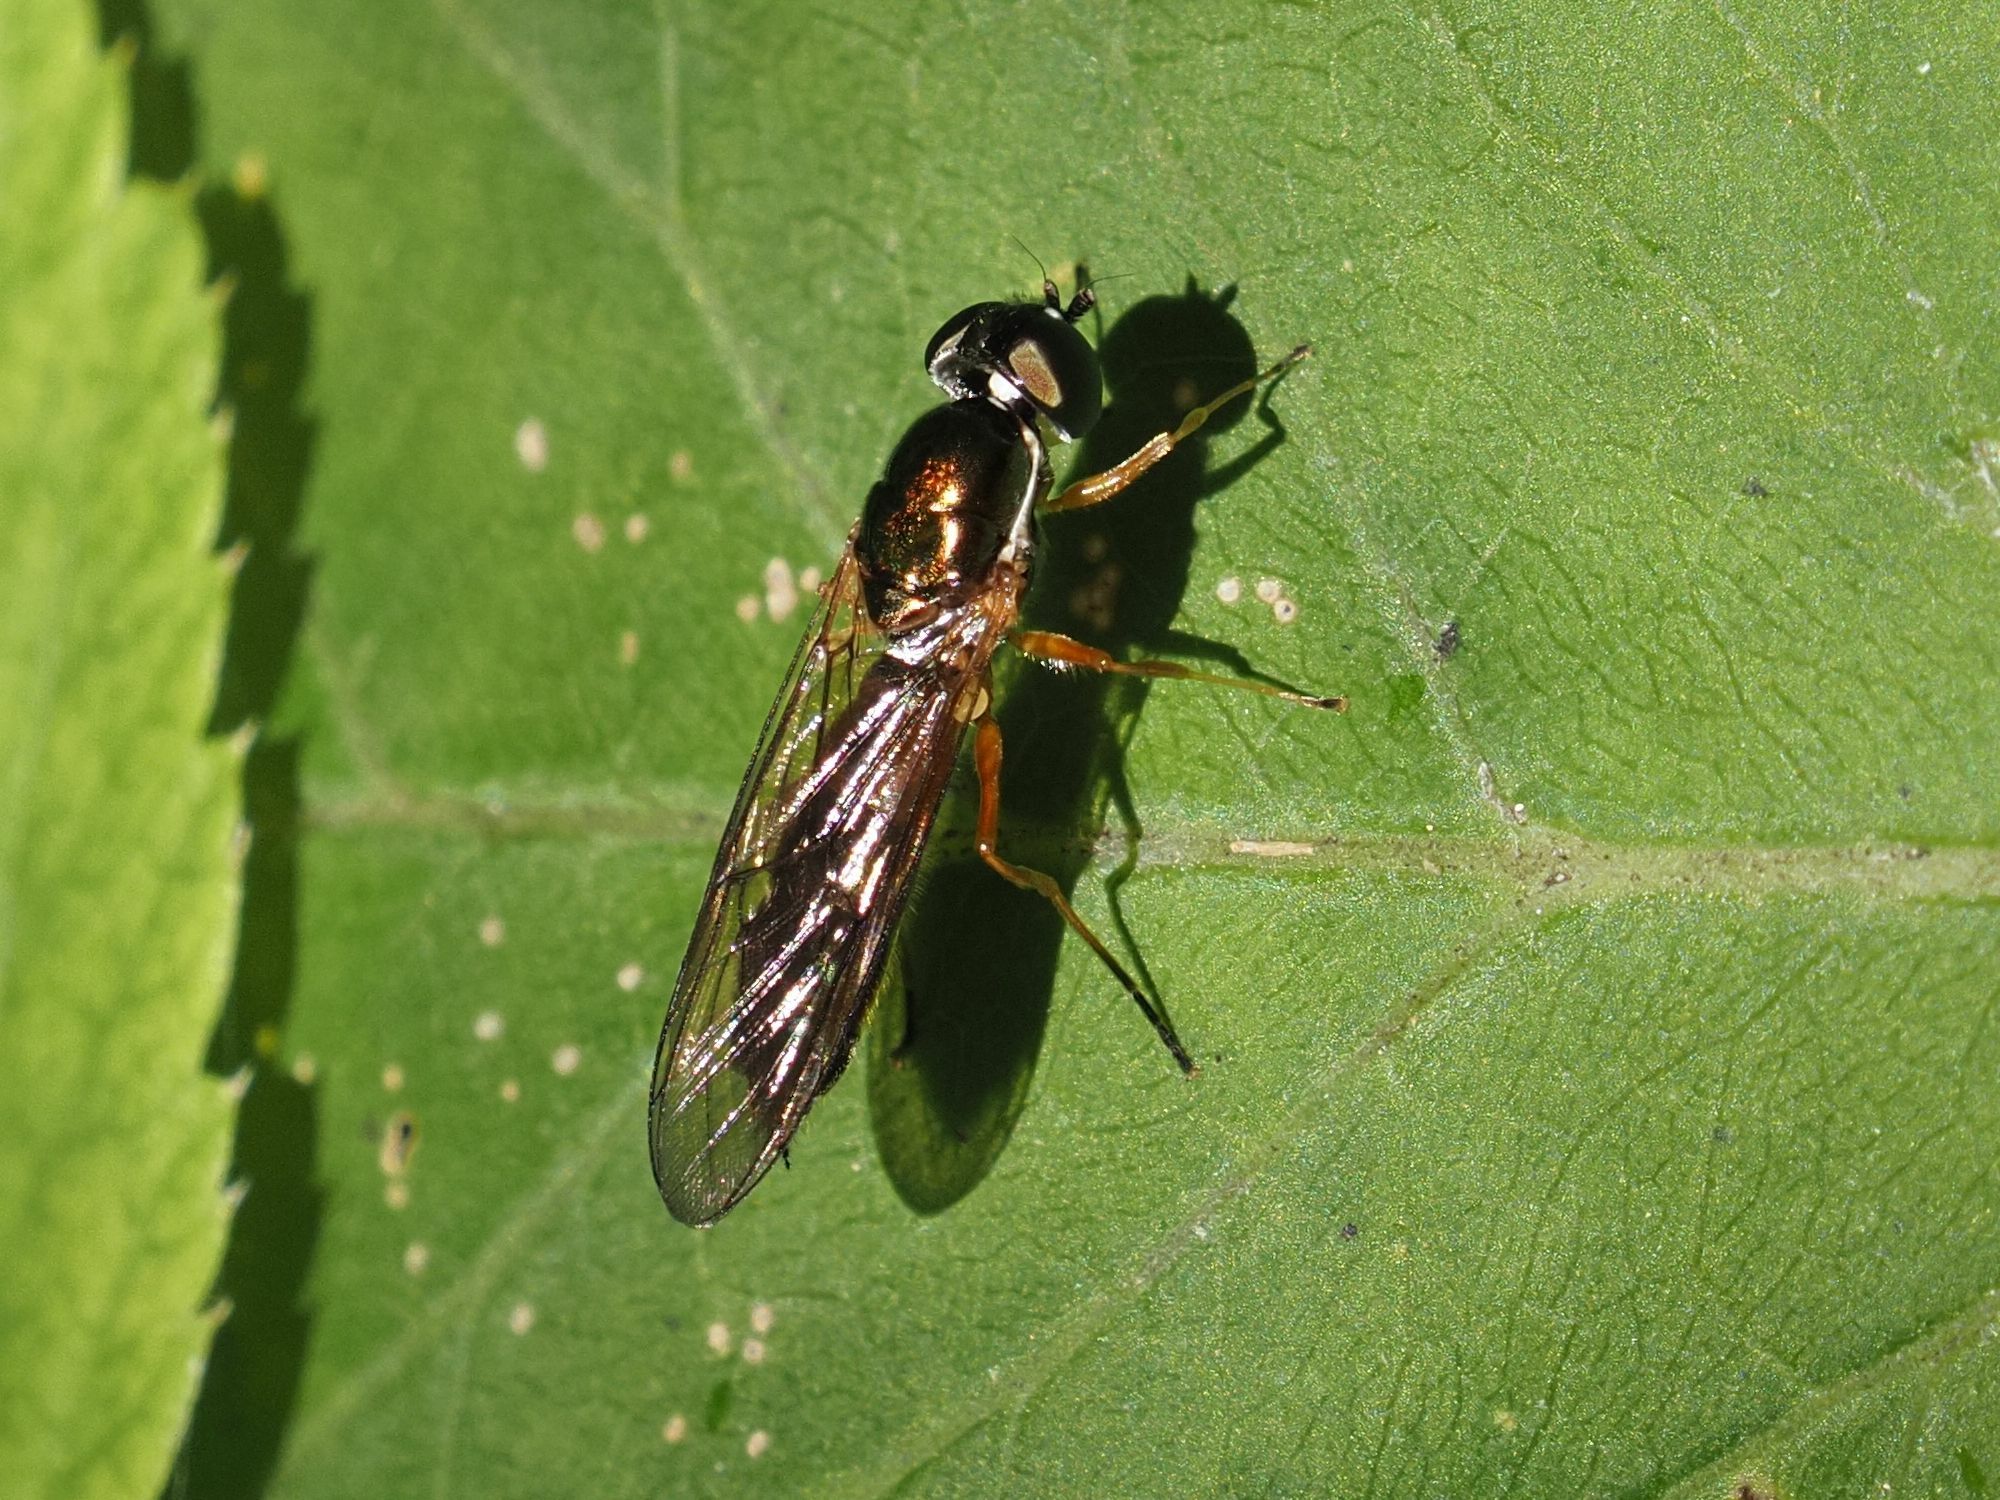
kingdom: Animalia
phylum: Arthropoda
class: Insecta
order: Diptera
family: Stratiomyidae
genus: Sargus
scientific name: Sargus bipunctatus
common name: Twin-spot centurion
